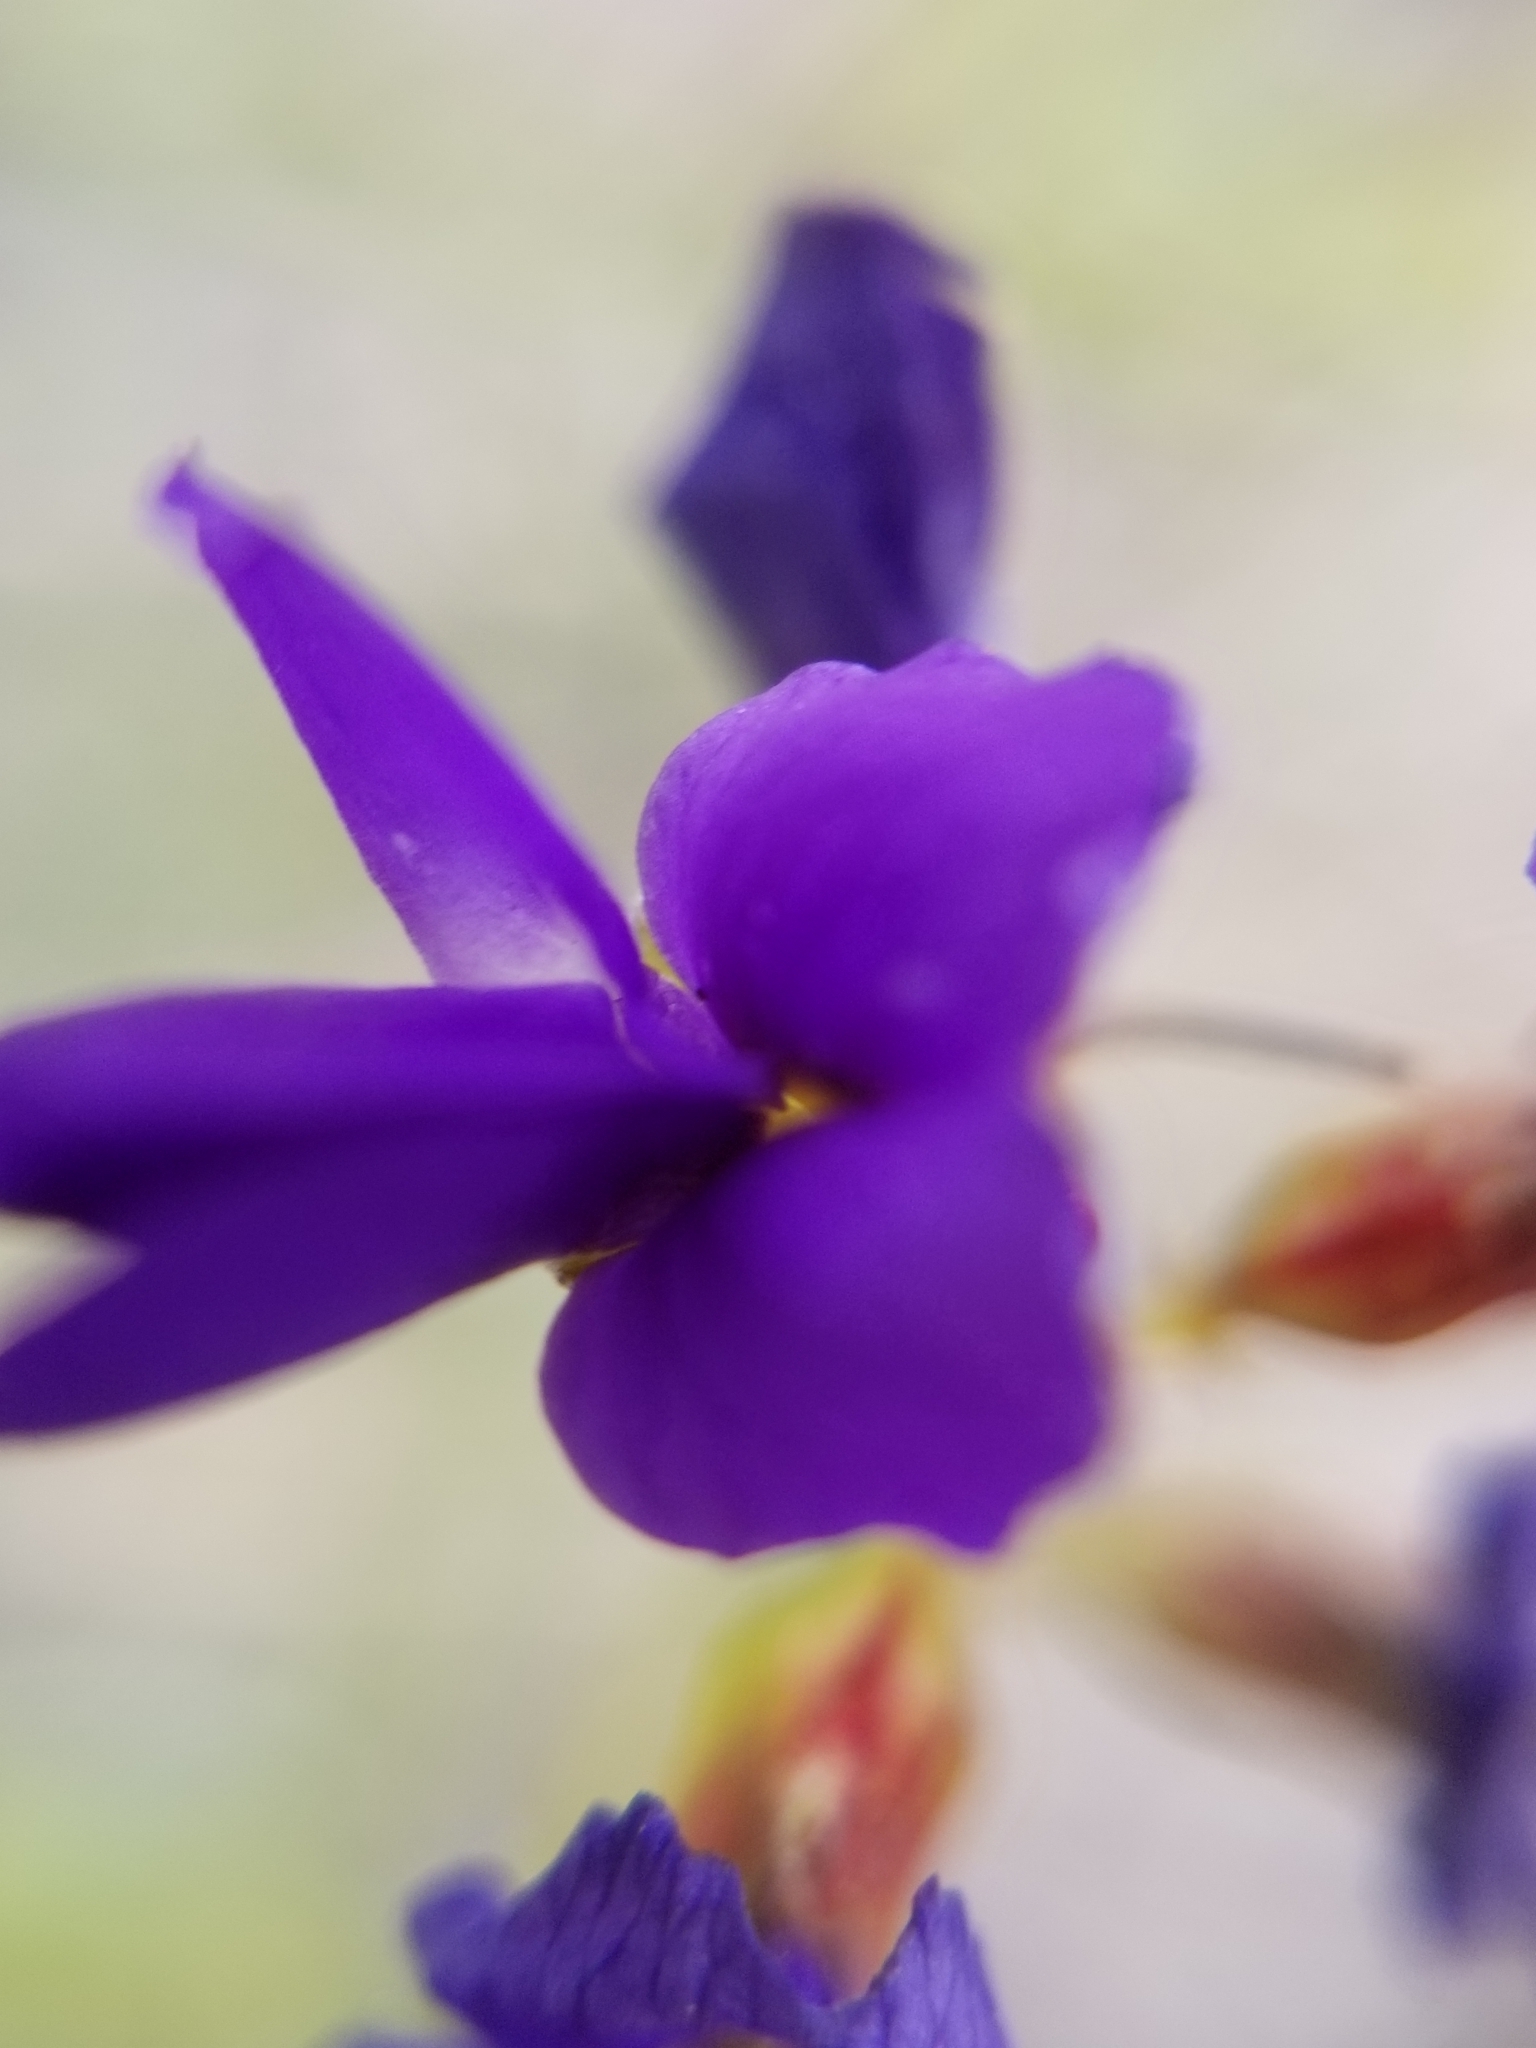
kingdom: Plantae
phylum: Tracheophyta
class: Magnoliopsida
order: Fabales
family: Fabaceae
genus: Psorothamnus
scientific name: Psorothamnus schottii
